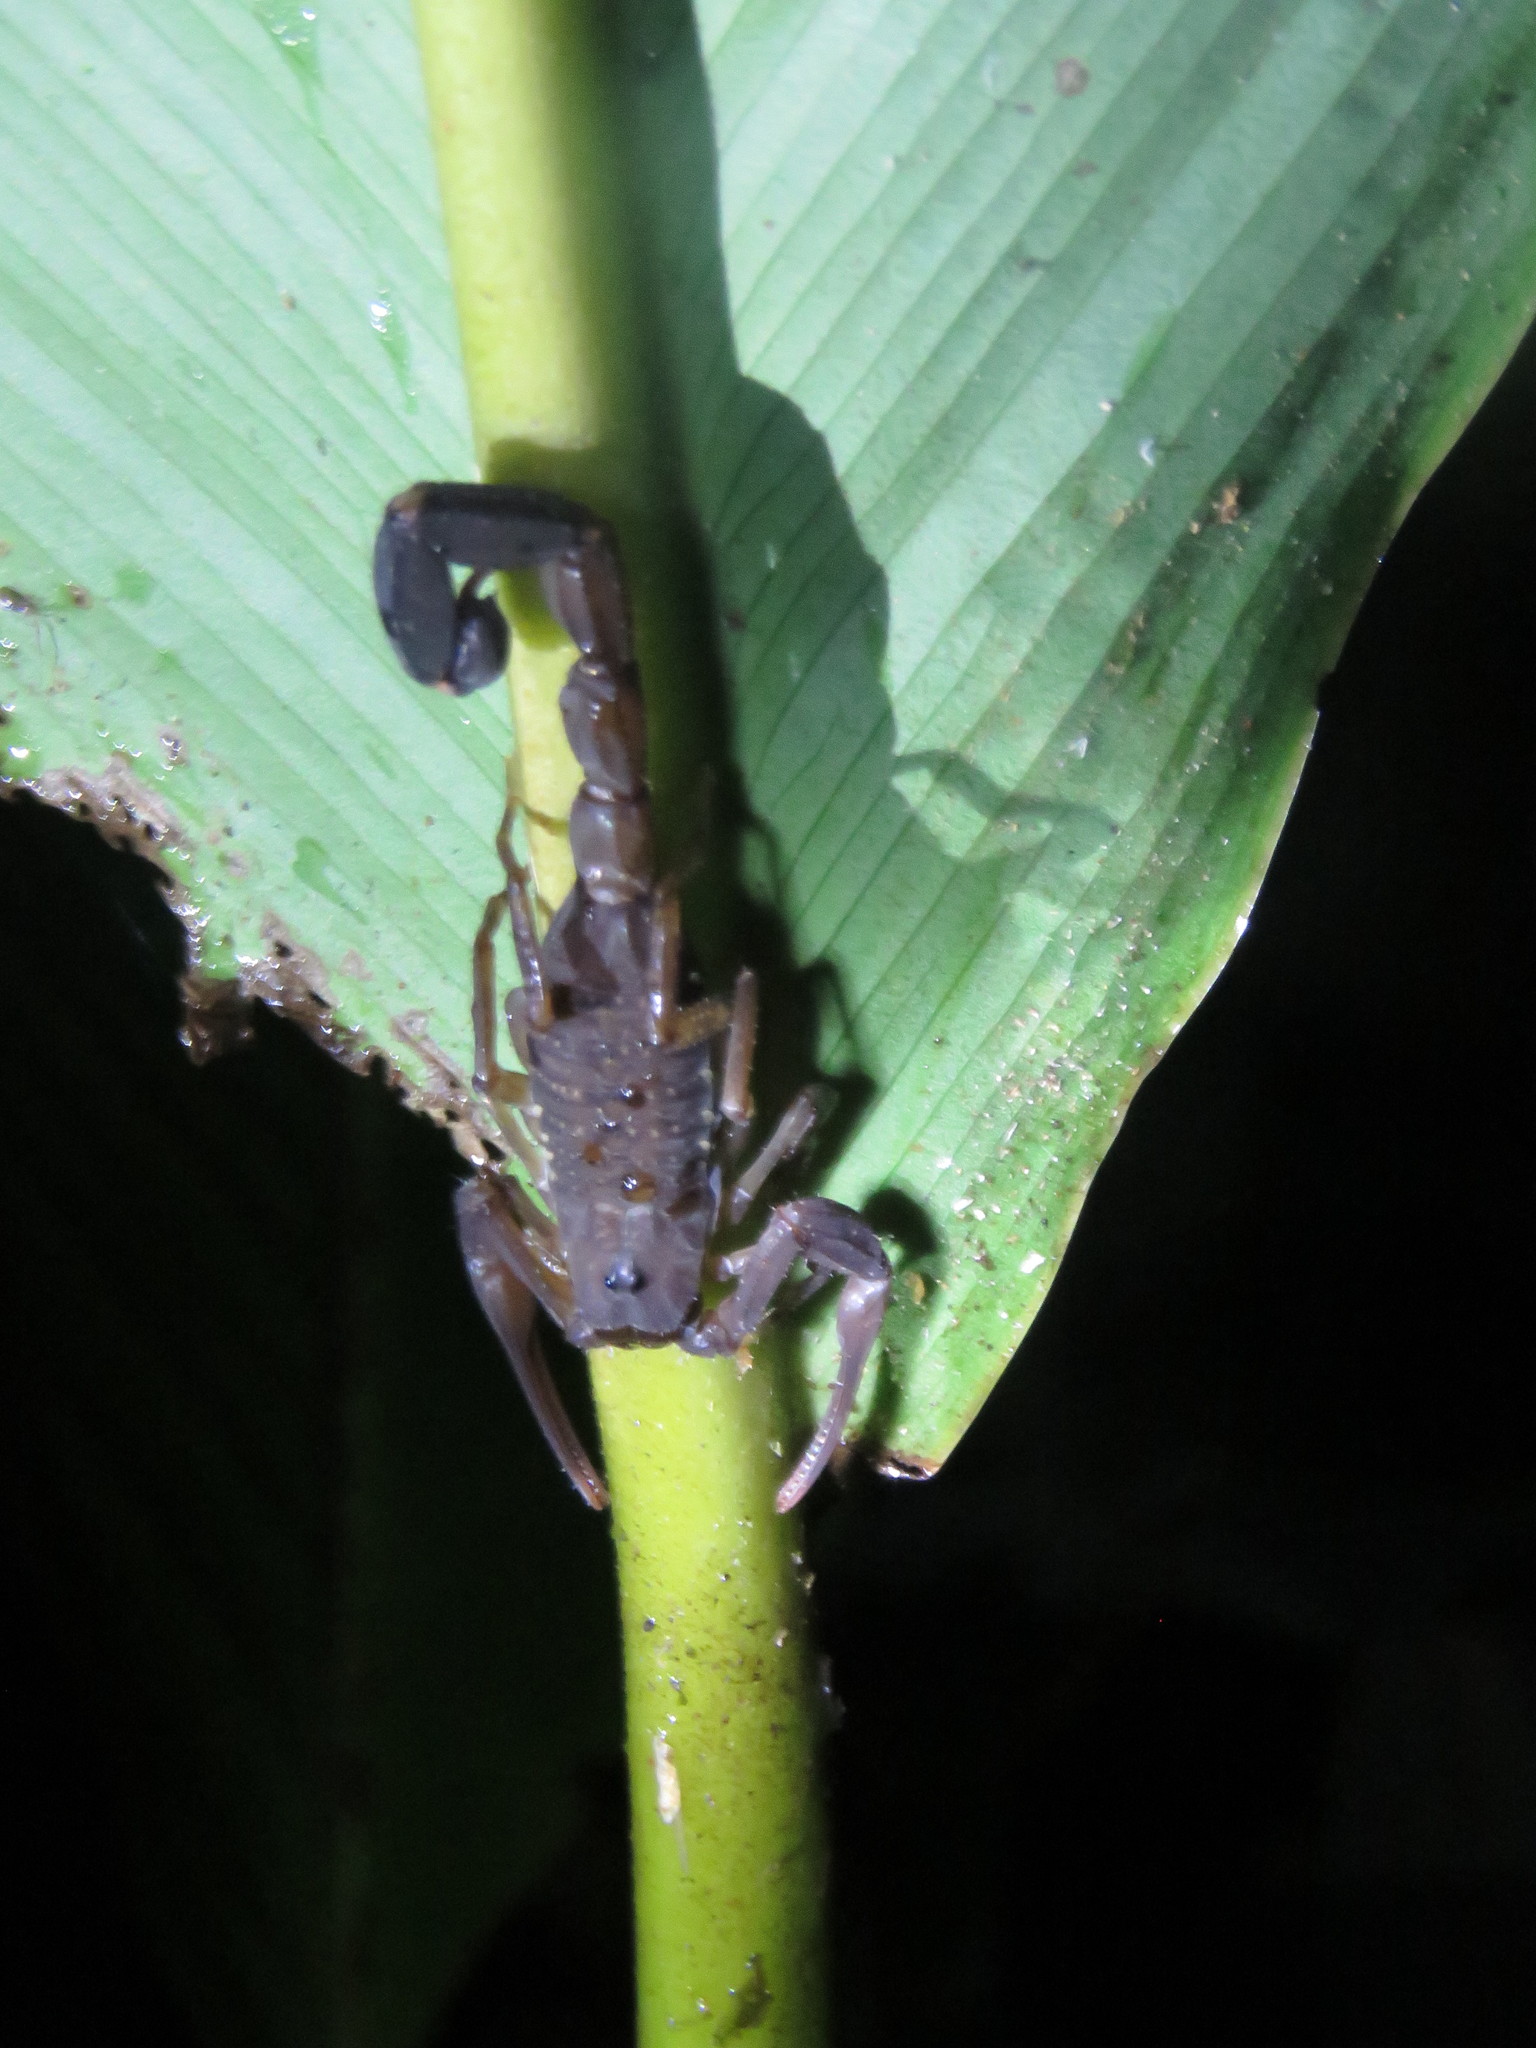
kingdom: Animalia
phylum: Arthropoda
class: Arachnida
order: Scorpiones
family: Buthidae
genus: Tityus
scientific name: Tityus choco
